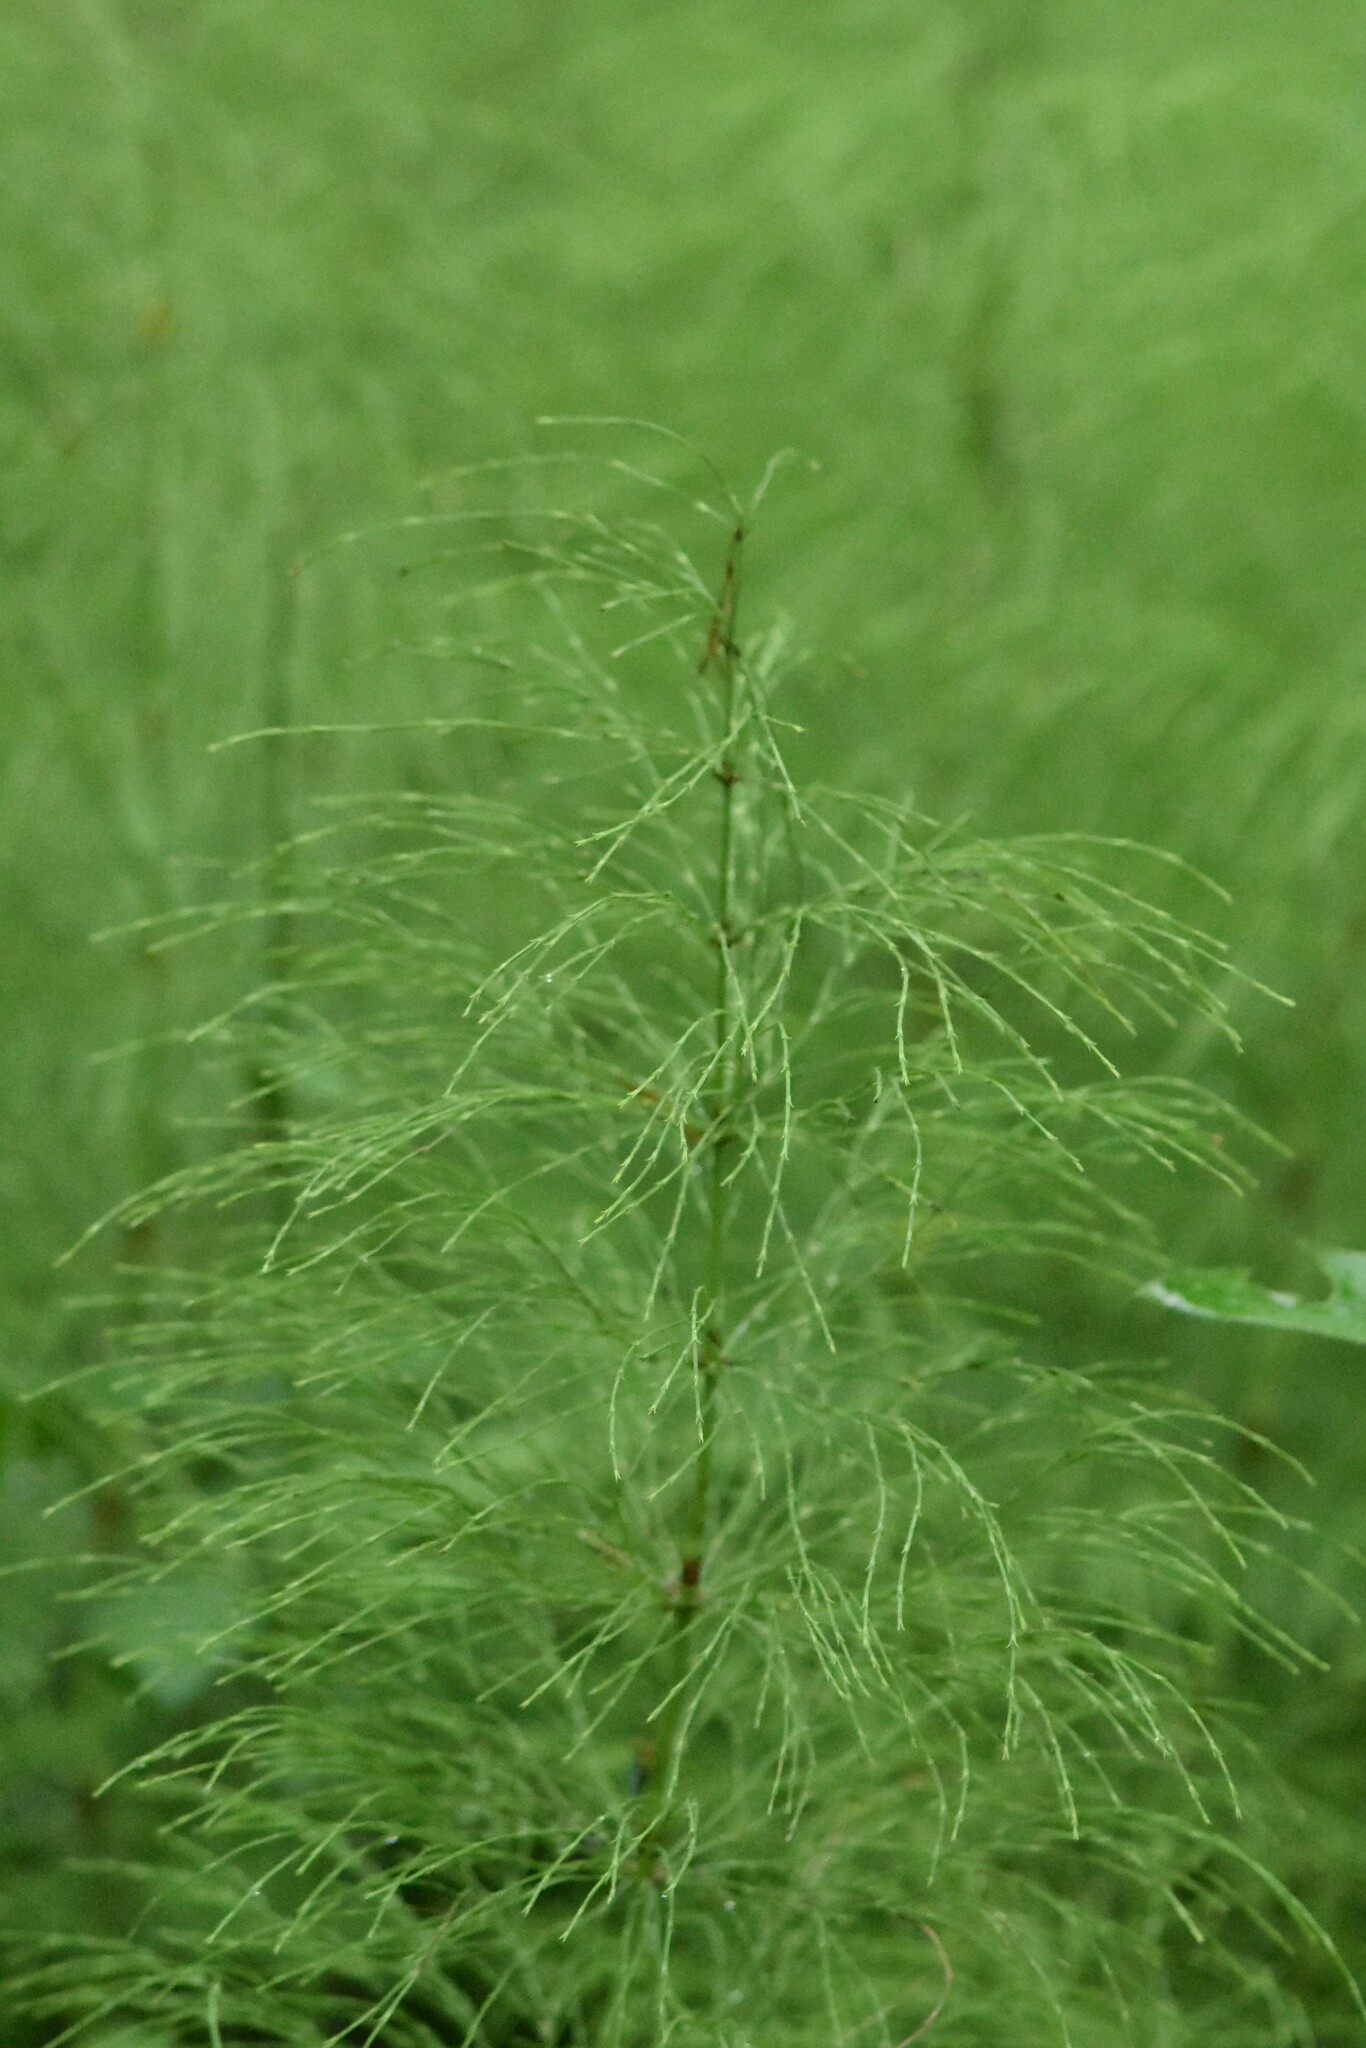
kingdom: Plantae
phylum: Tracheophyta
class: Polypodiopsida
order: Equisetales
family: Equisetaceae
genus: Equisetum
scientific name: Equisetum sylvaticum
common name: Wood horsetail
